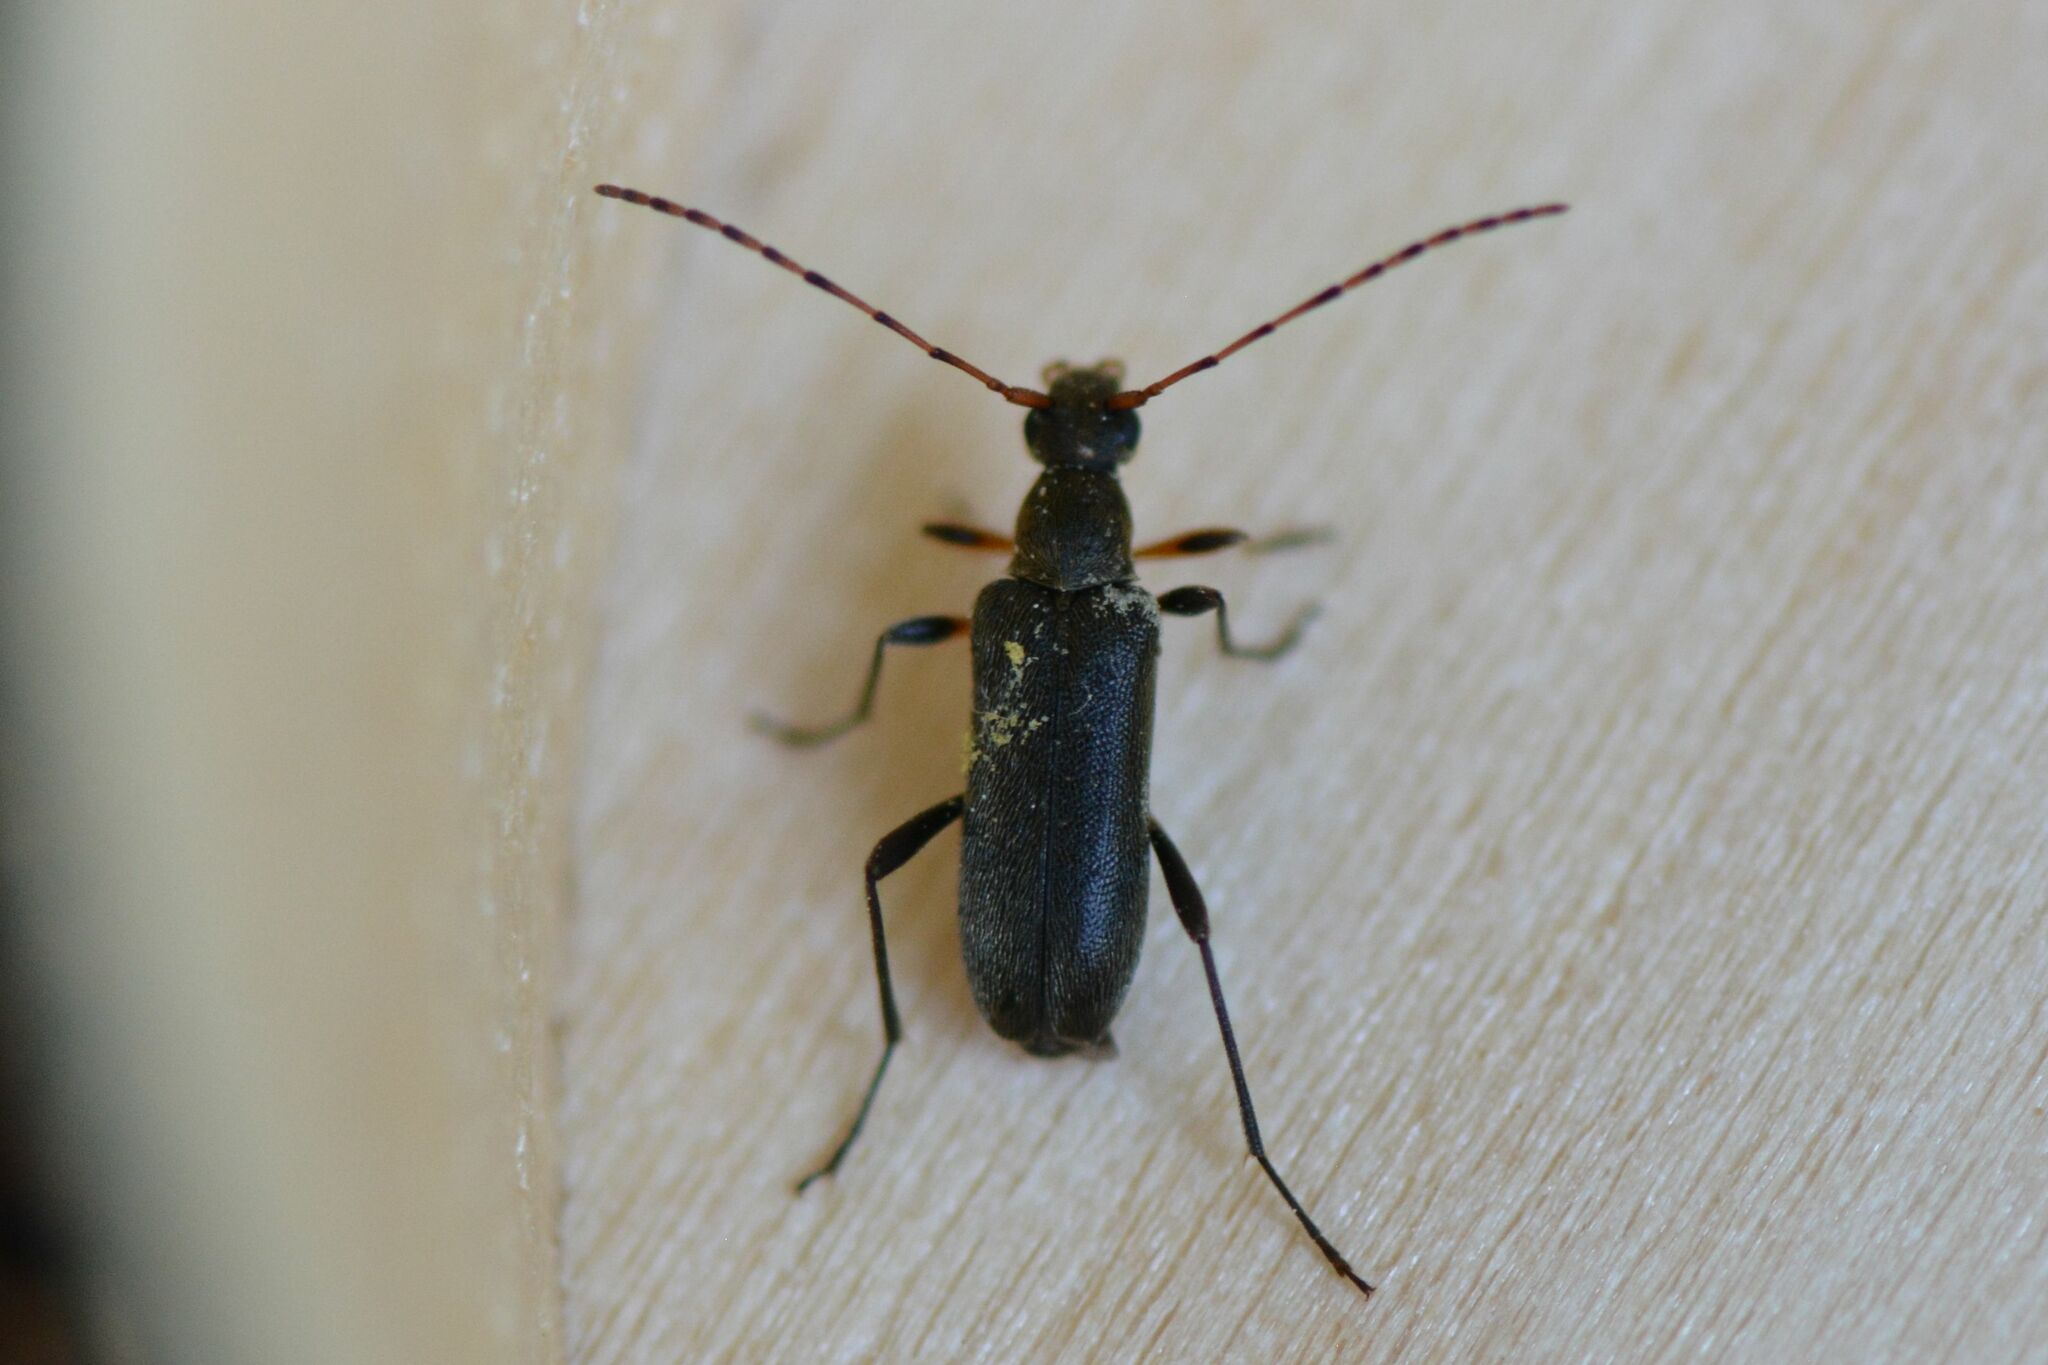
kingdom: Animalia
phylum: Arthropoda
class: Insecta
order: Coleoptera
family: Cerambycidae
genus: Grammoptera
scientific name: Grammoptera ruficornis
